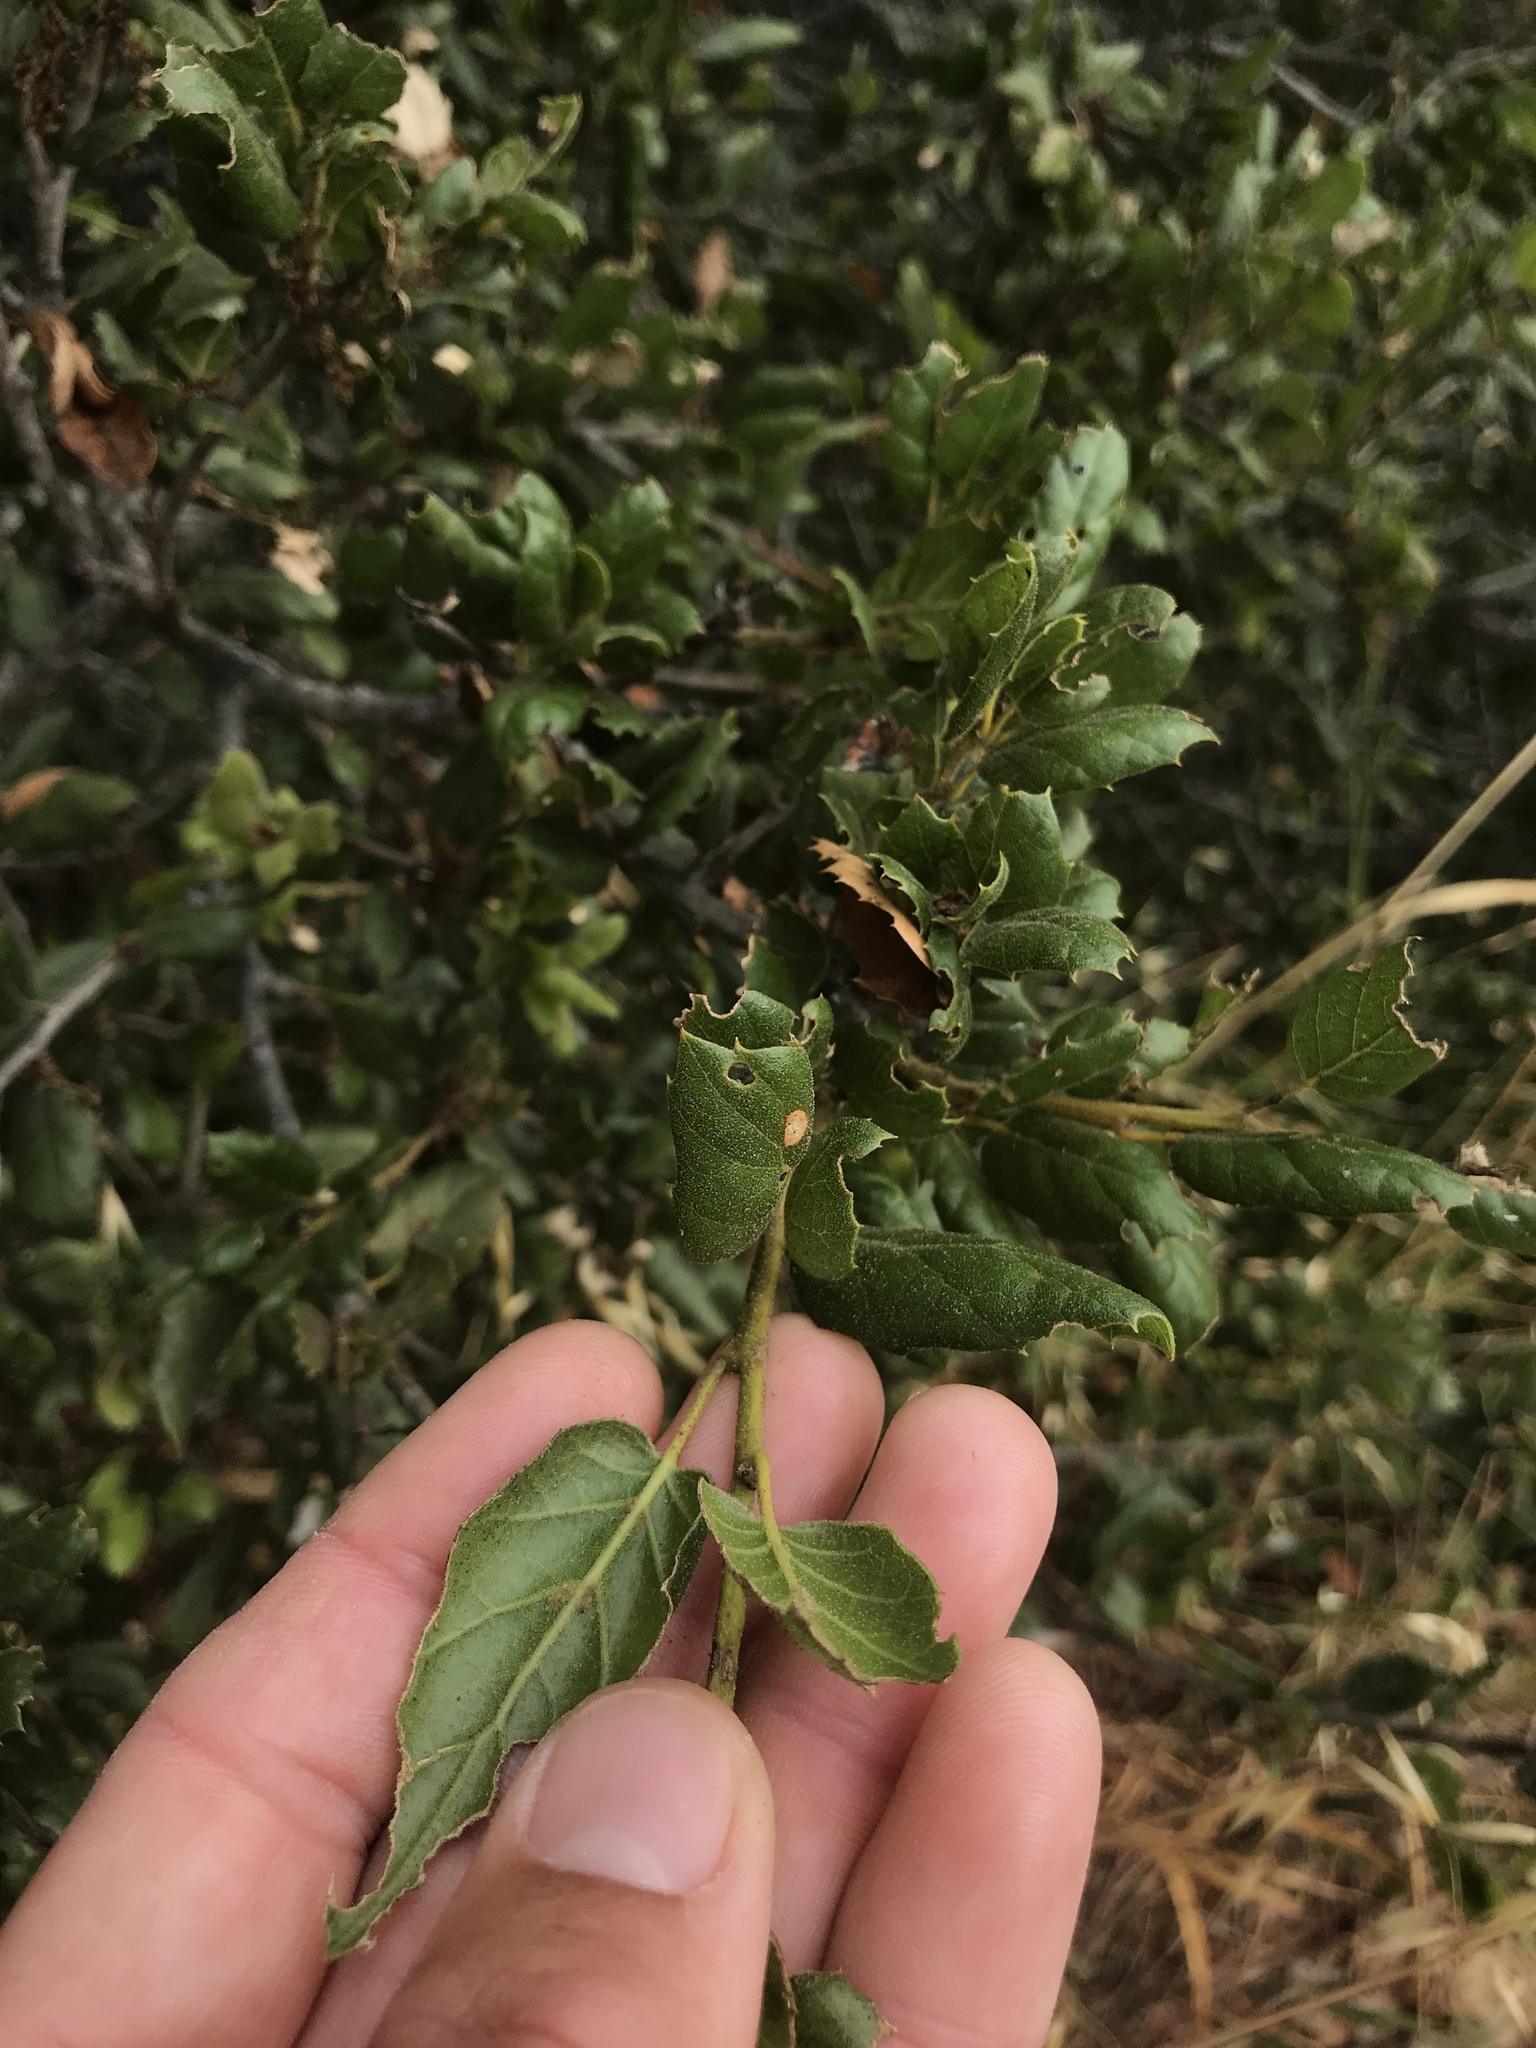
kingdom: Plantae
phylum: Tracheophyta
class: Magnoliopsida
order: Fagales
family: Fagaceae
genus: Quercus
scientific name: Quercus agrifolia
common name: California live oak
